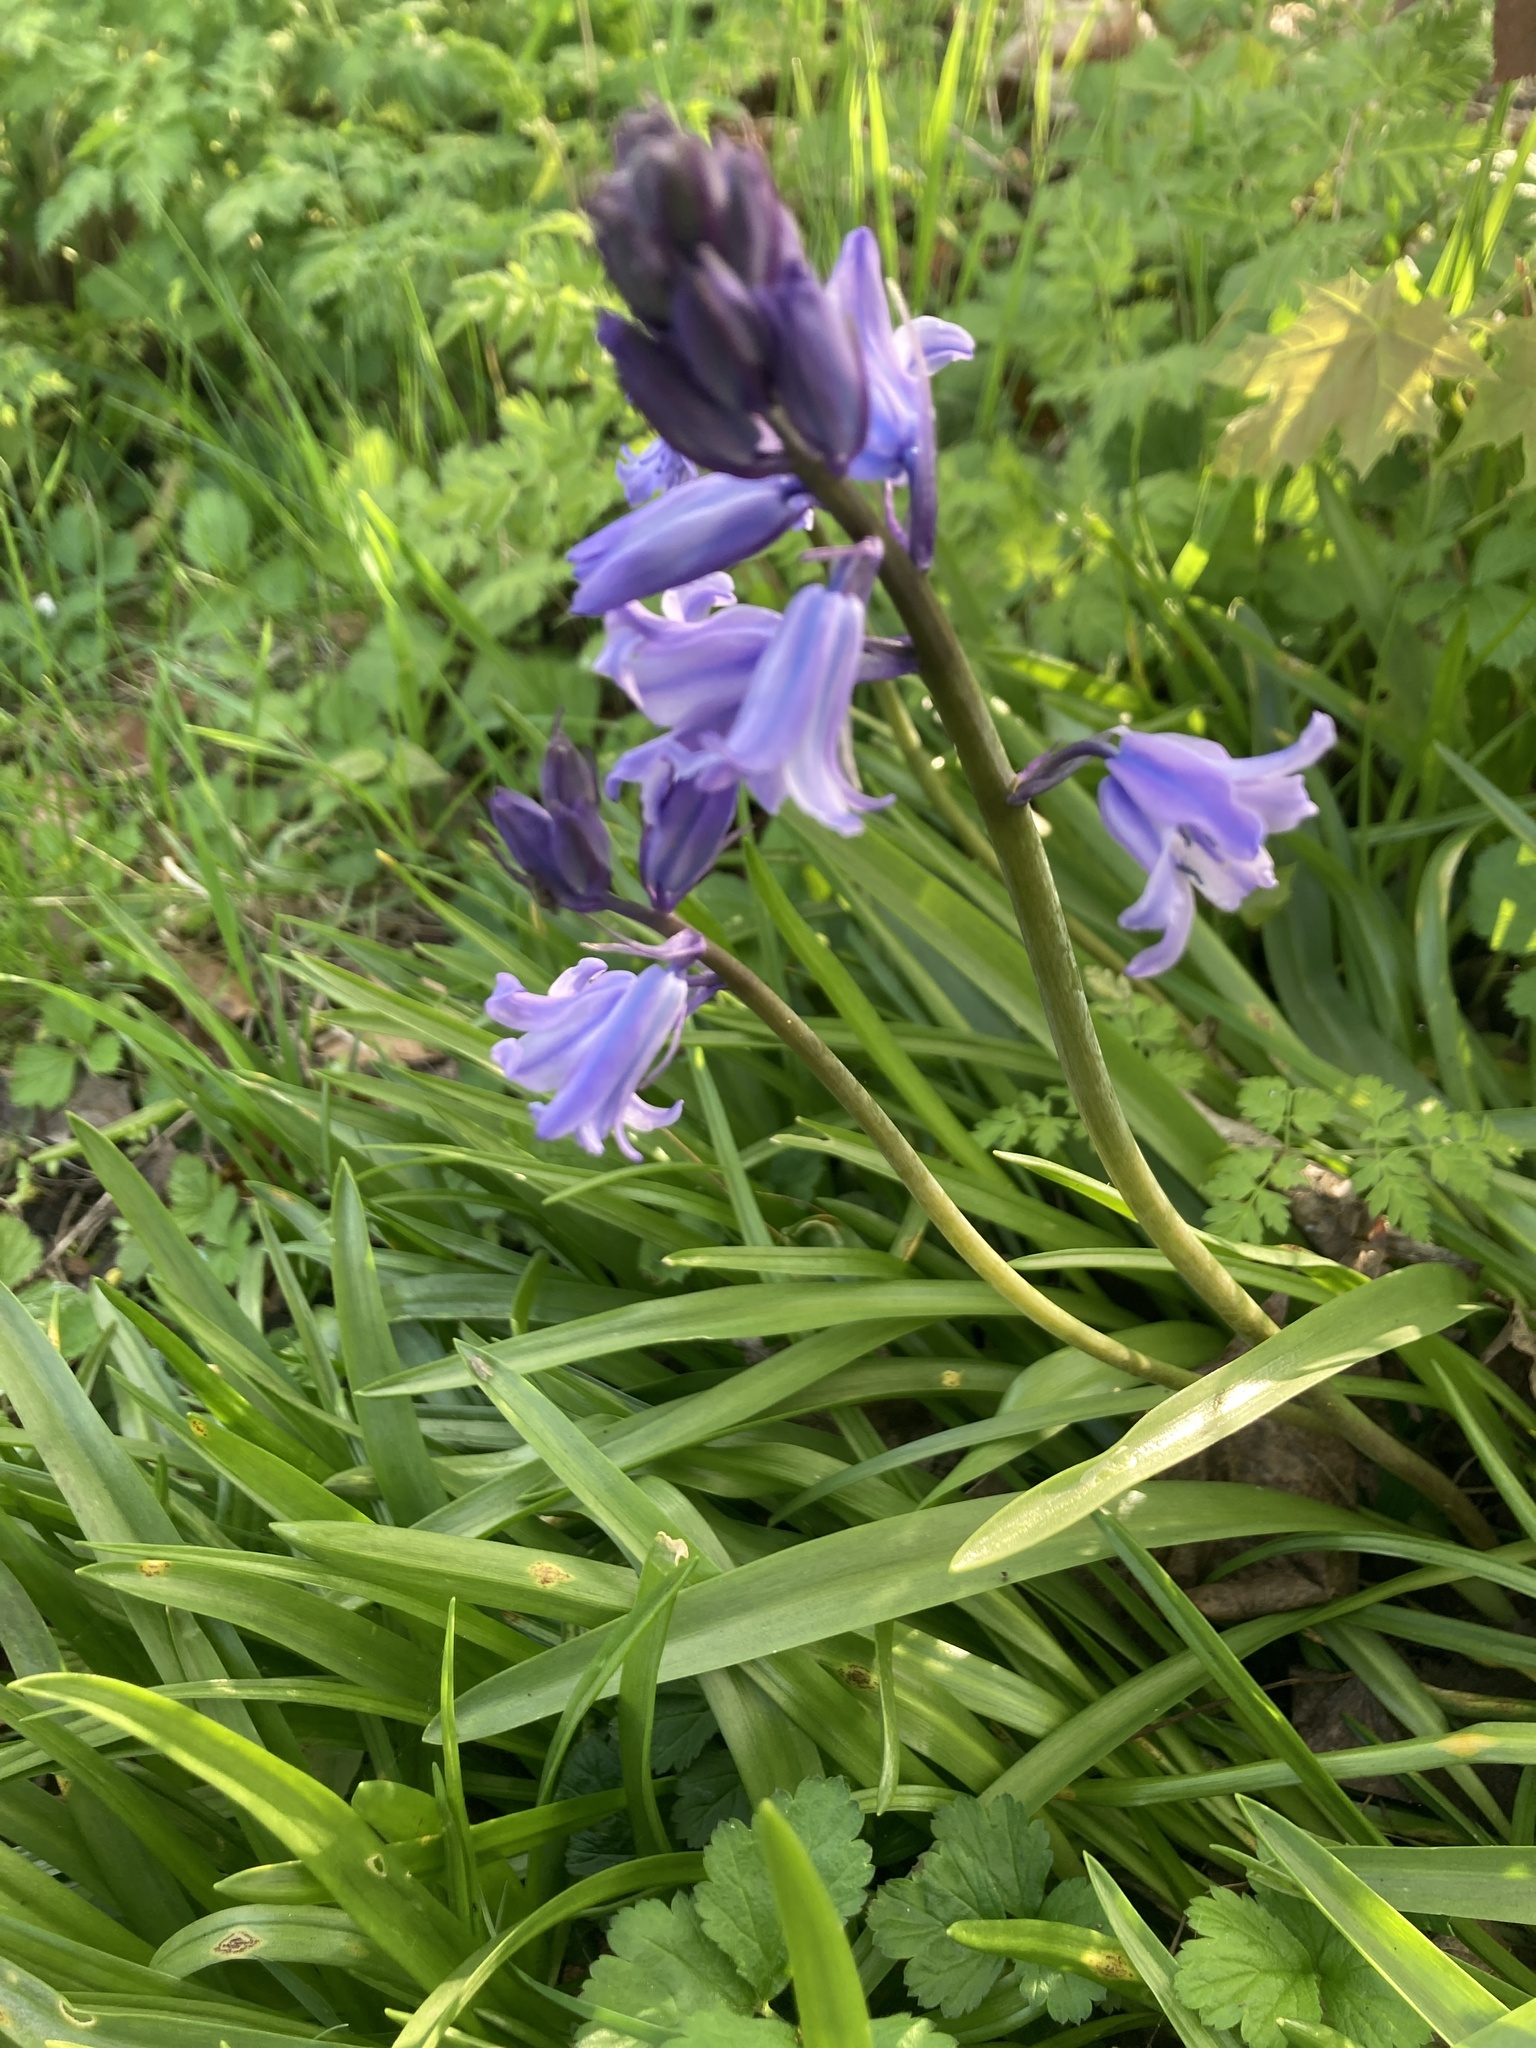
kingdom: Plantae
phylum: Tracheophyta
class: Liliopsida
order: Asparagales
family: Asparagaceae
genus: Hyacinthoides
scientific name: Hyacinthoides hispanica
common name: Spanish bluebell
